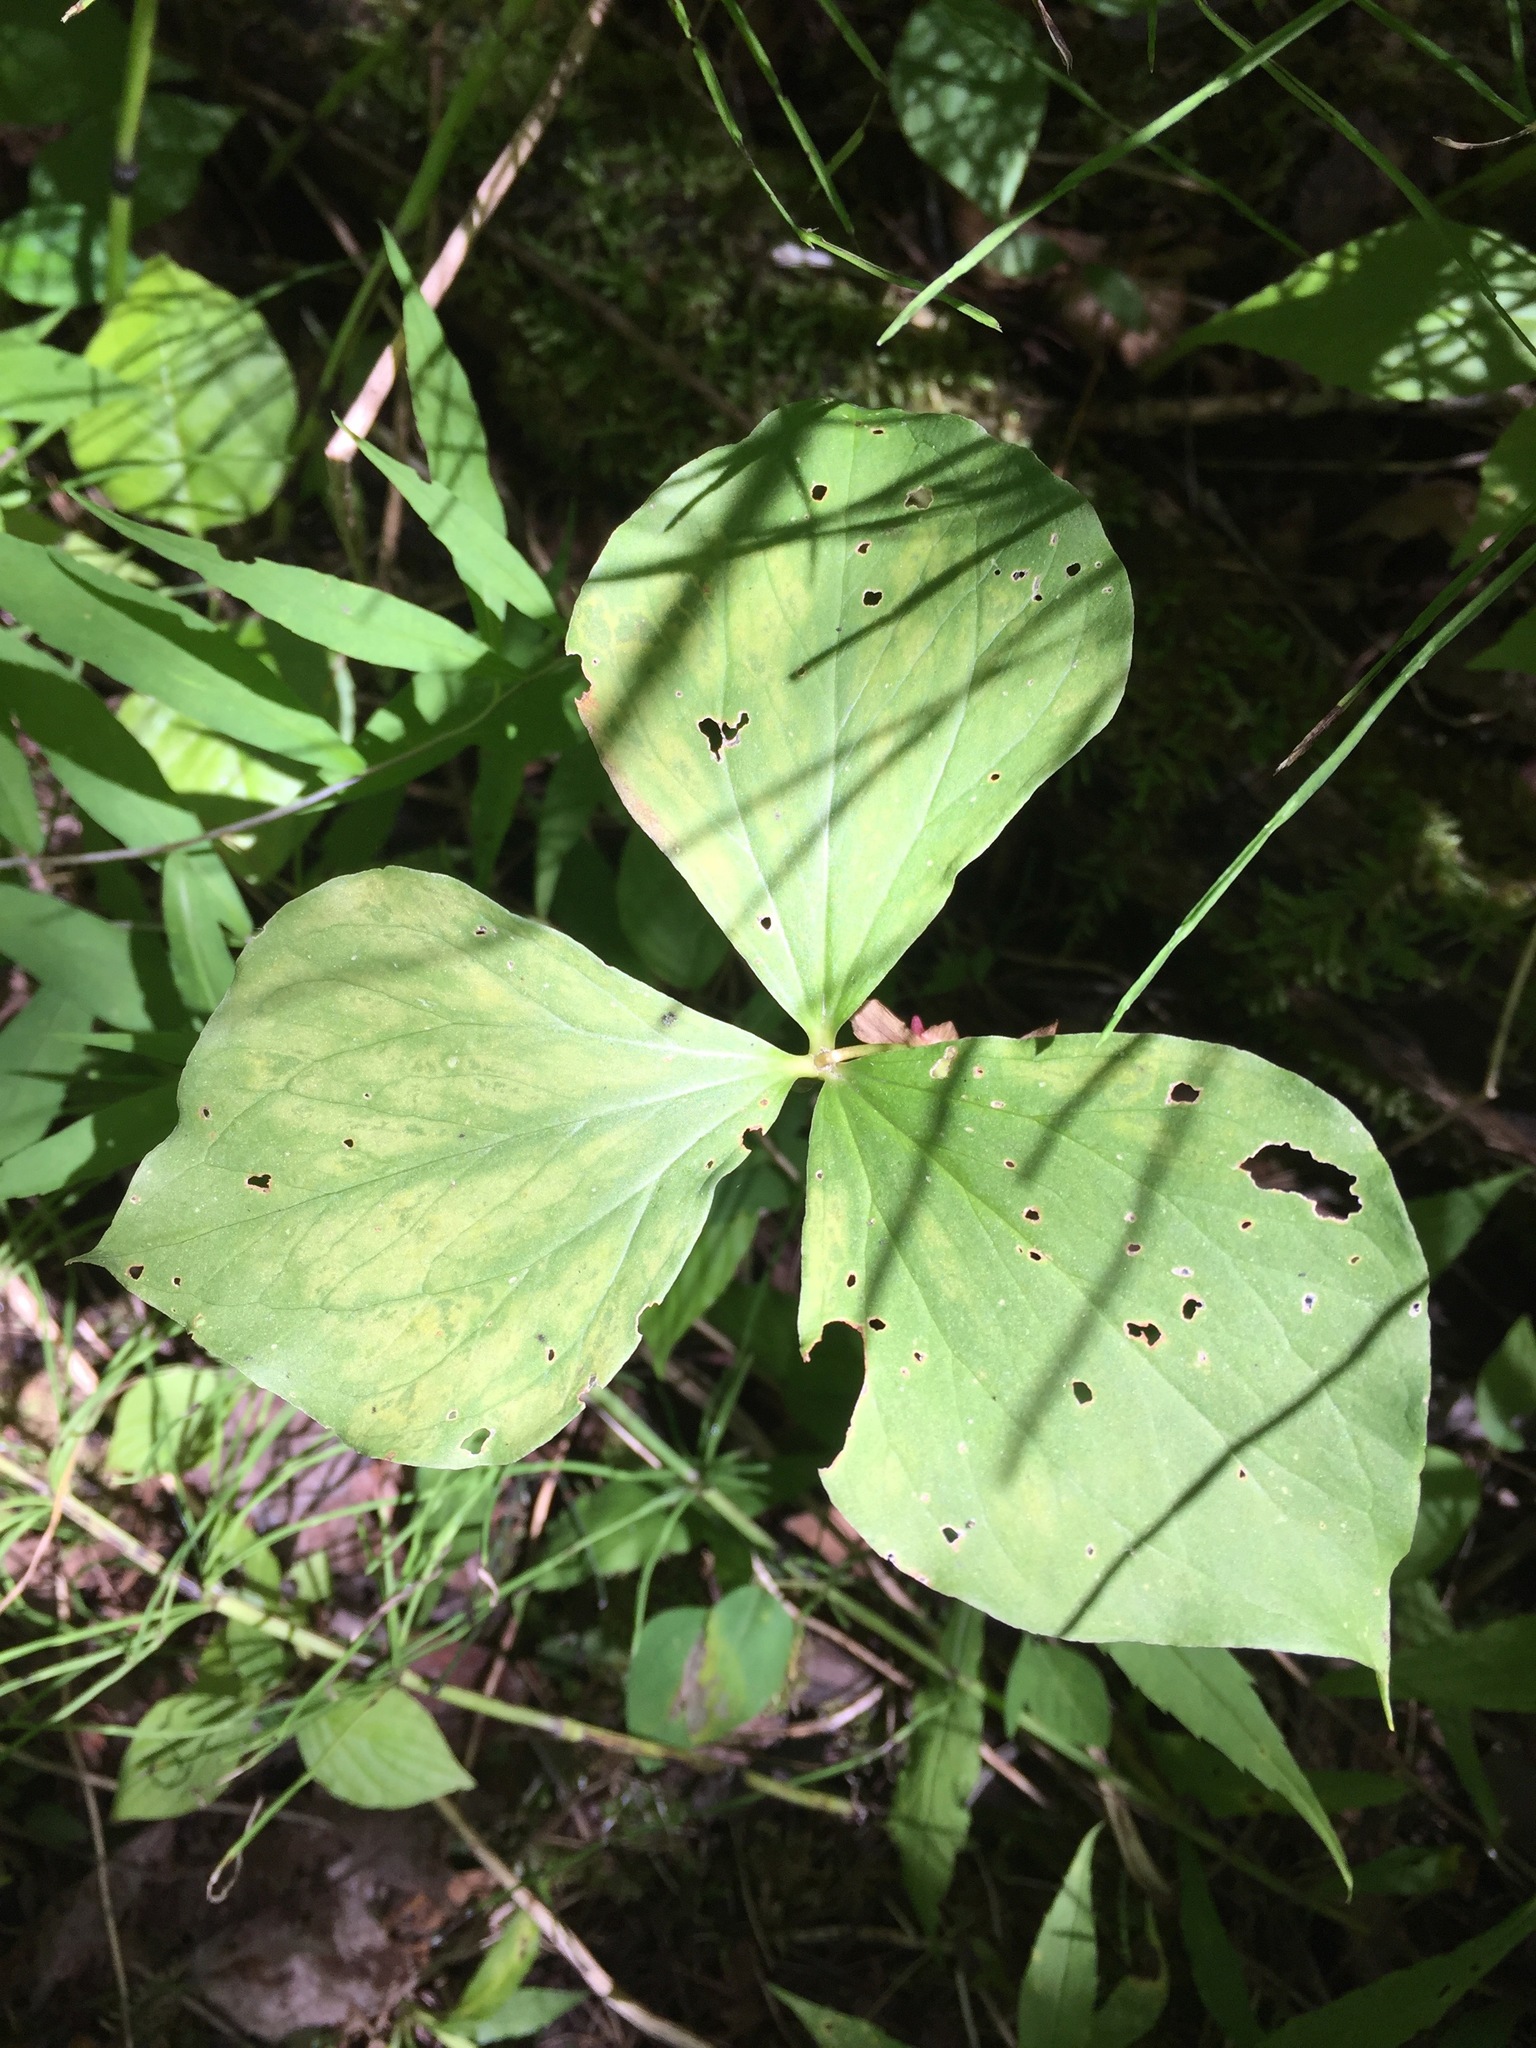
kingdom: Plantae
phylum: Tracheophyta
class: Liliopsida
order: Liliales
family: Melanthiaceae
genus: Trillium
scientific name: Trillium cernuum
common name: Nodding trillium
